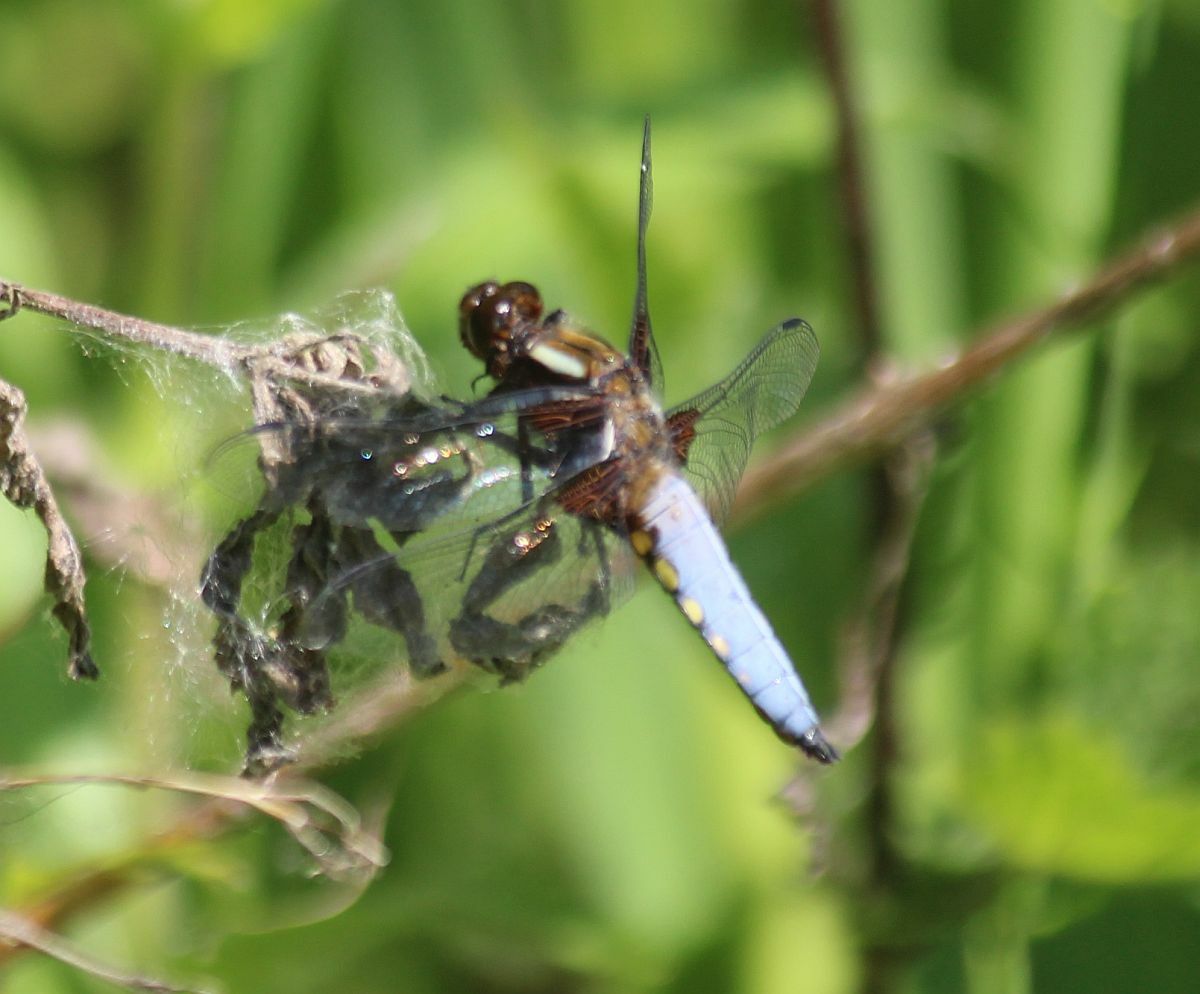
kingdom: Animalia
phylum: Arthropoda
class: Insecta
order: Odonata
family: Libellulidae
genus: Libellula
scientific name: Libellula depressa
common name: Broad-bodied chaser
